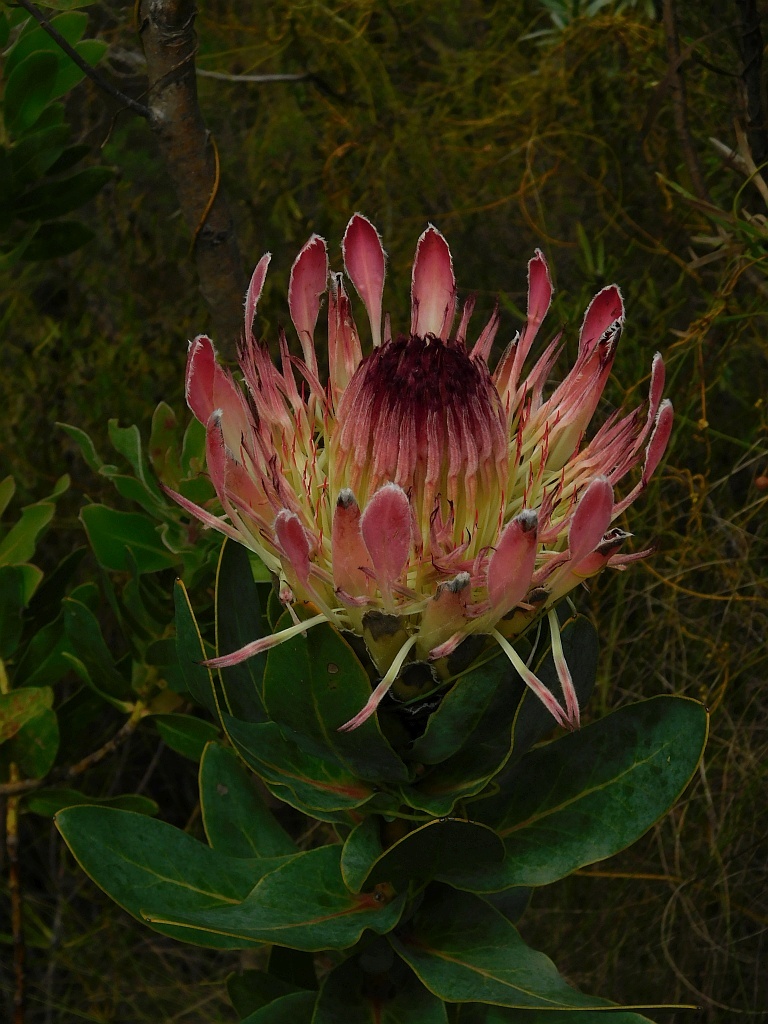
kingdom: Plantae
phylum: Tracheophyta
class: Magnoliopsida
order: Proteales
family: Proteaceae
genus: Protea
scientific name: Protea eximia
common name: Broad-leaved sugarbush
